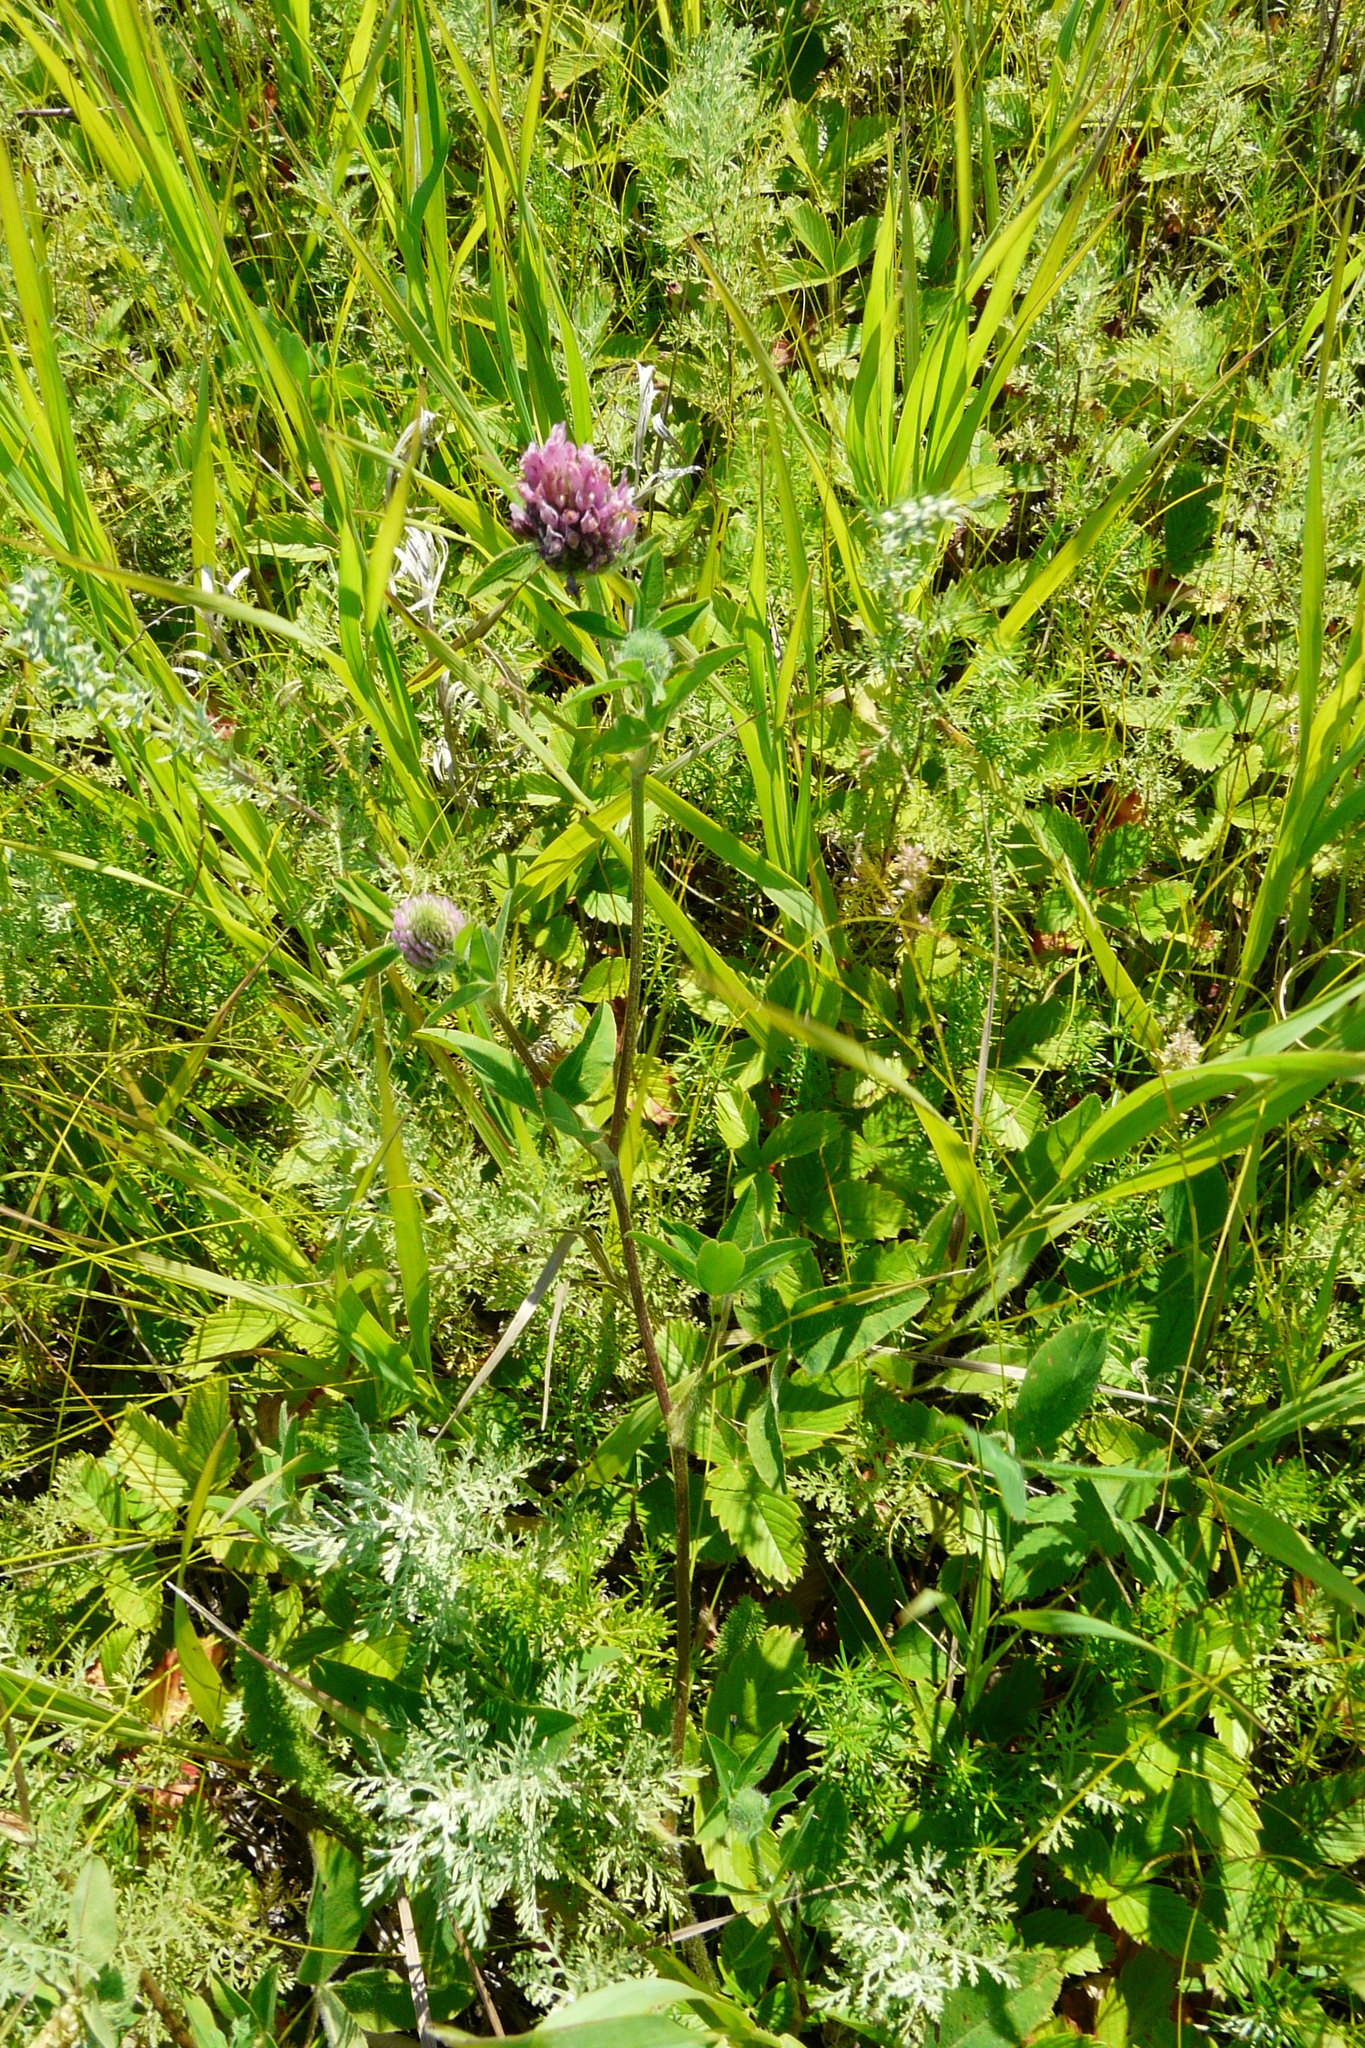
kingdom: Plantae
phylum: Tracheophyta
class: Magnoliopsida
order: Fabales
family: Fabaceae
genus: Trifolium
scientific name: Trifolium alpestre
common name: Owl-head clover
